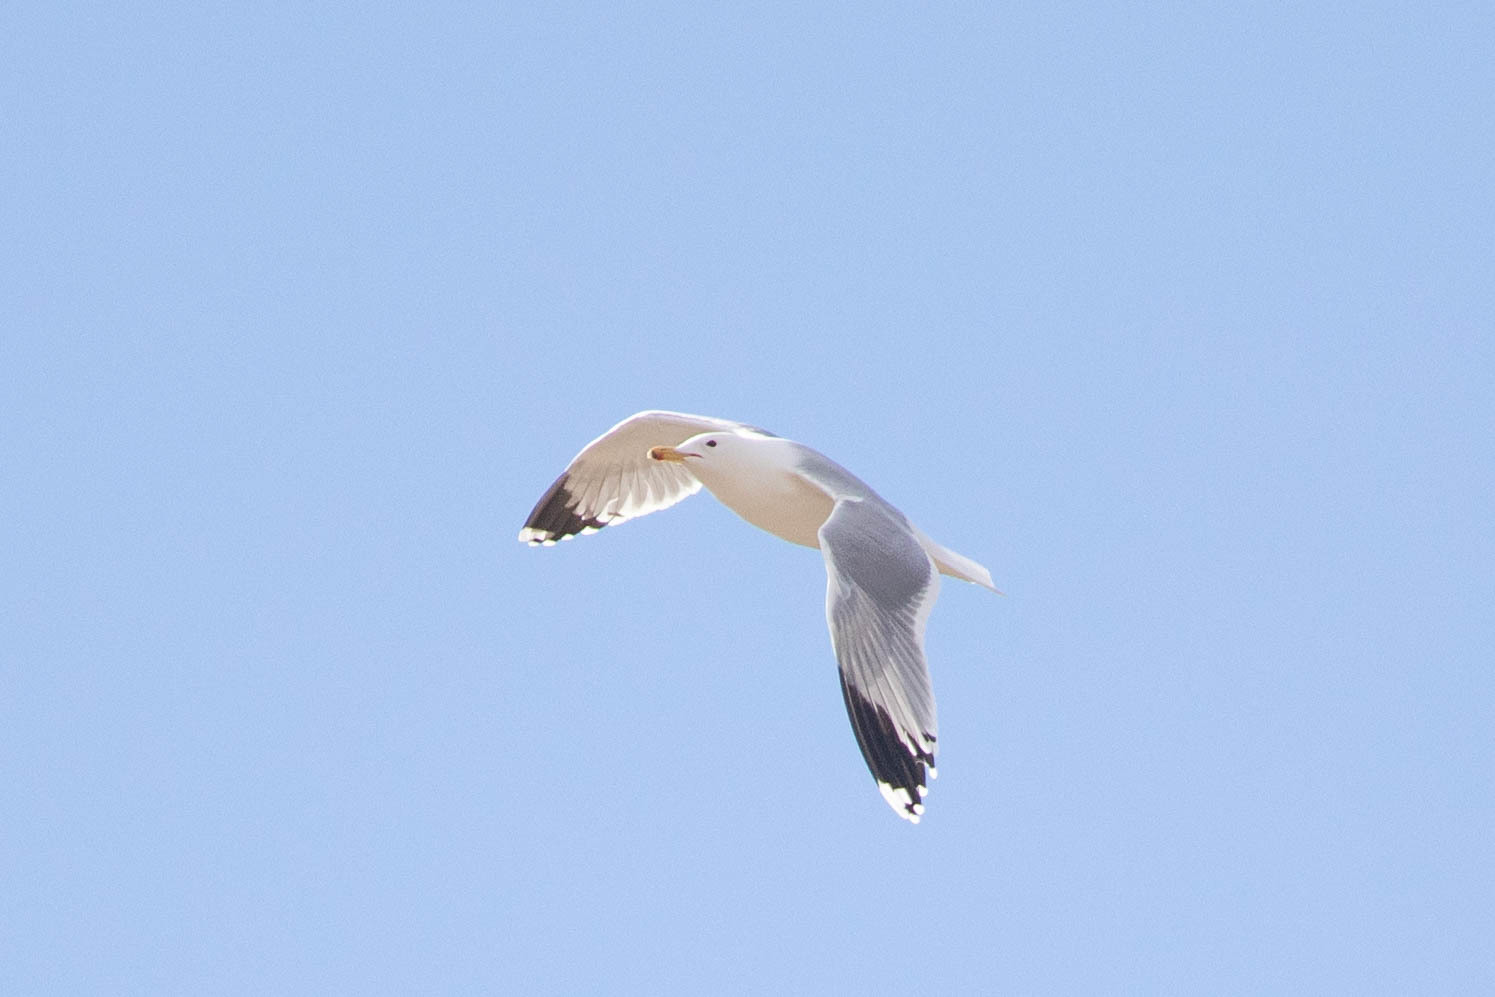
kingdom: Animalia
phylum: Chordata
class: Aves
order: Charadriiformes
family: Laridae
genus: Larus
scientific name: Larus californicus
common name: California gull
